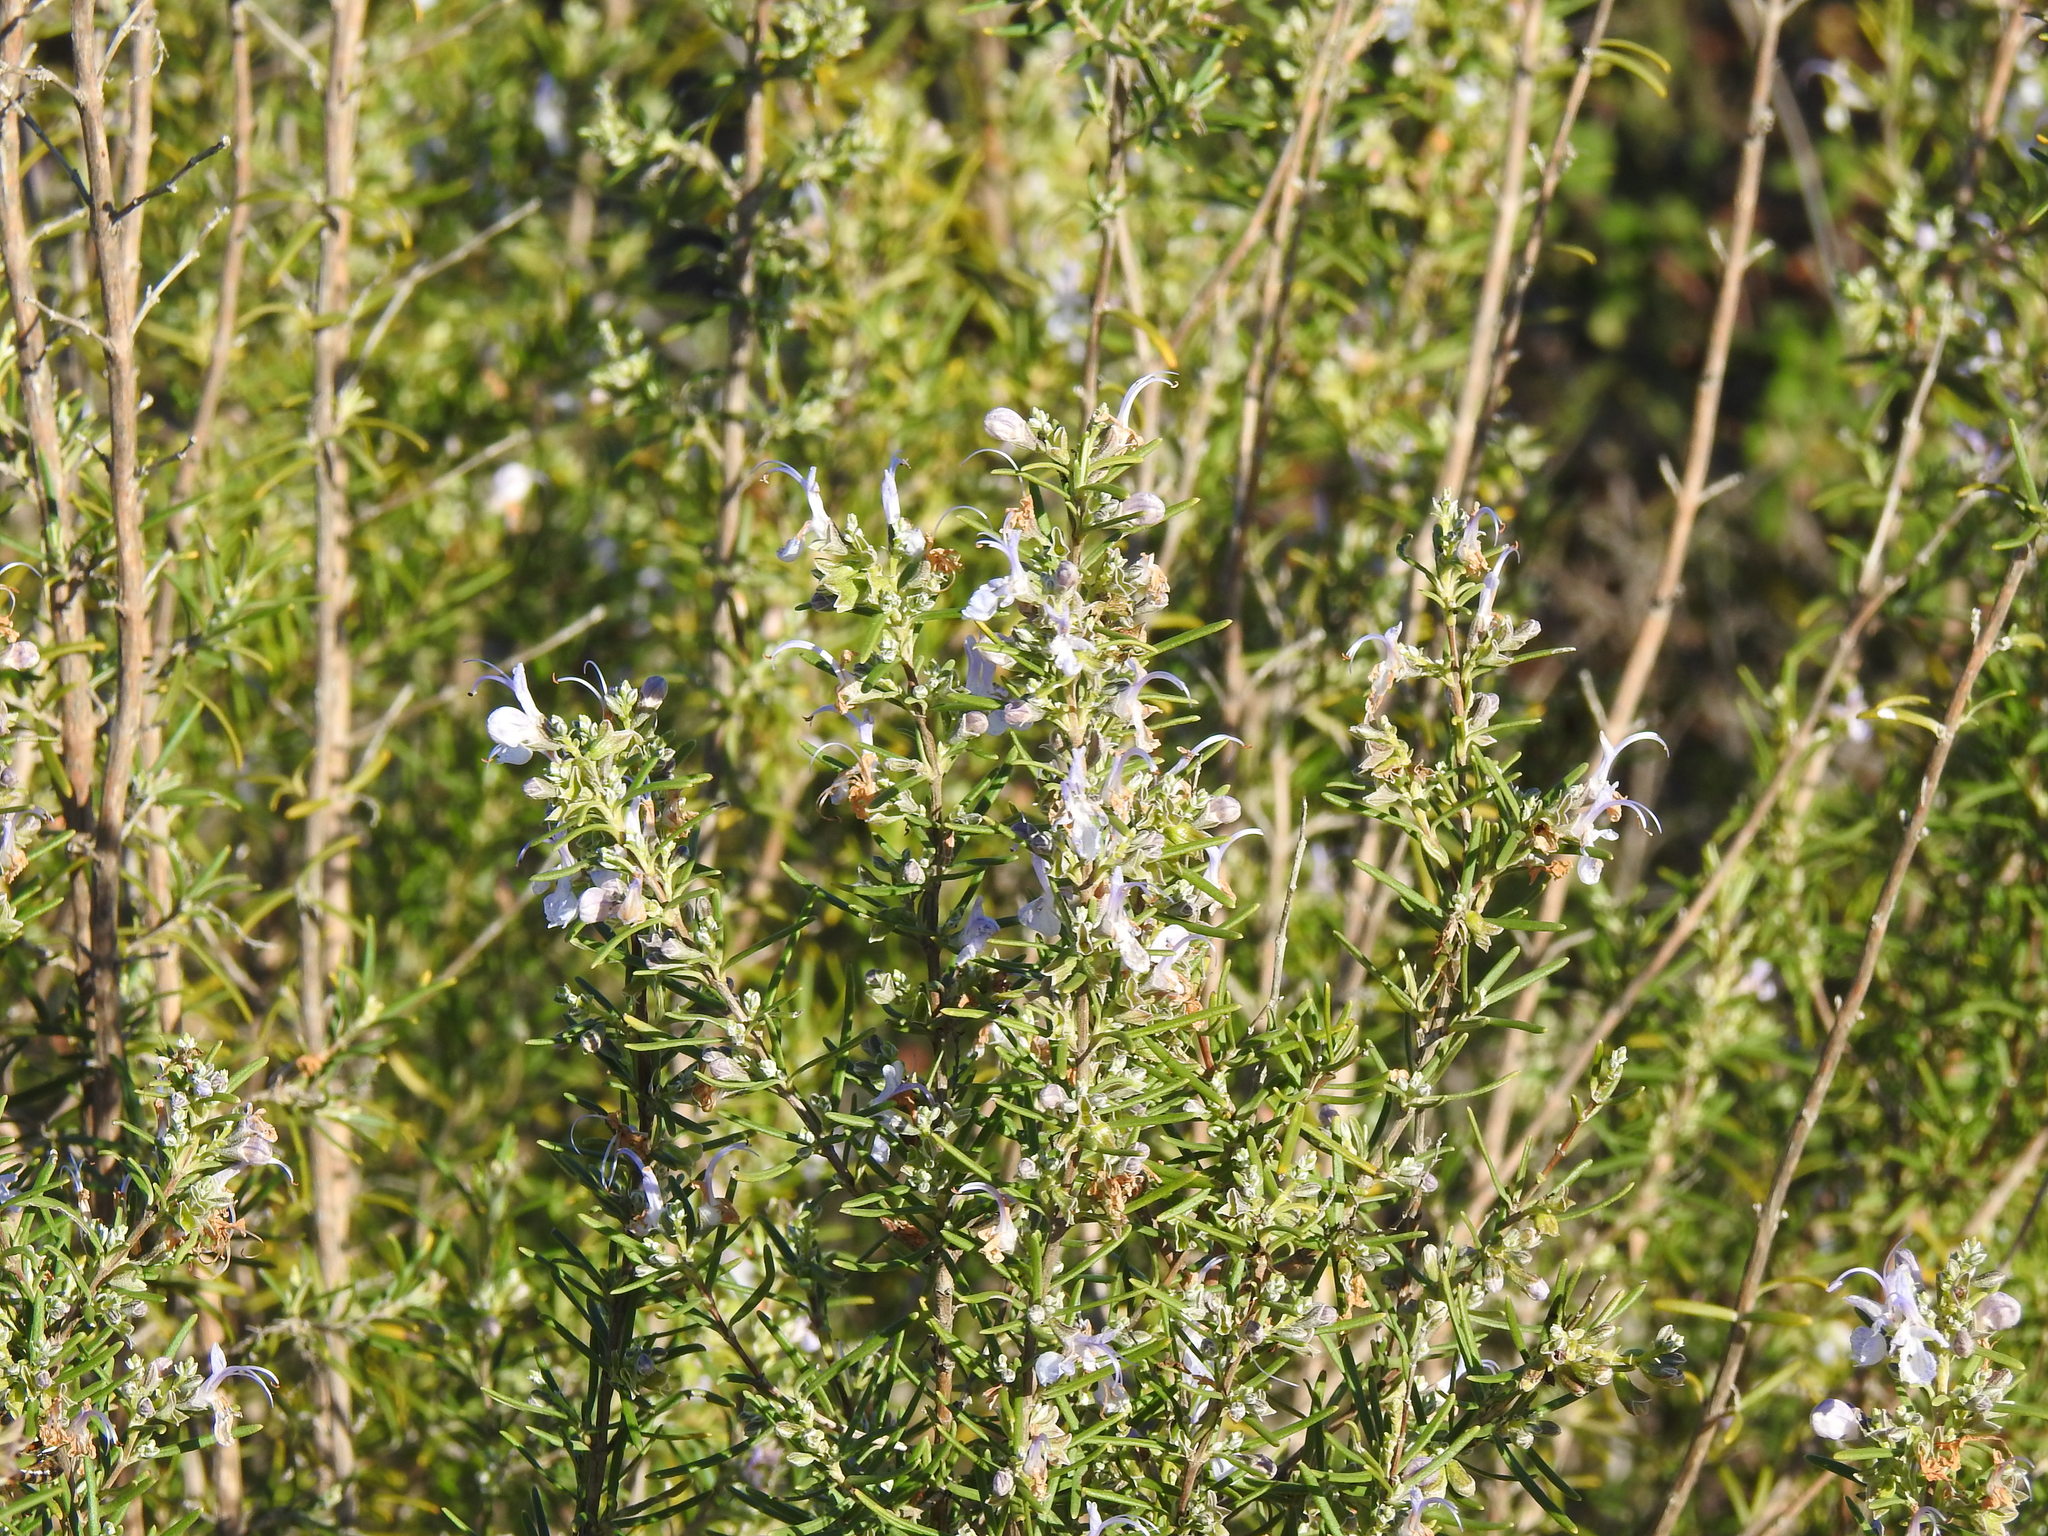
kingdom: Plantae
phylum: Tracheophyta
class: Magnoliopsida
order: Lamiales
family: Lamiaceae
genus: Salvia
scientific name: Salvia rosmarinus
